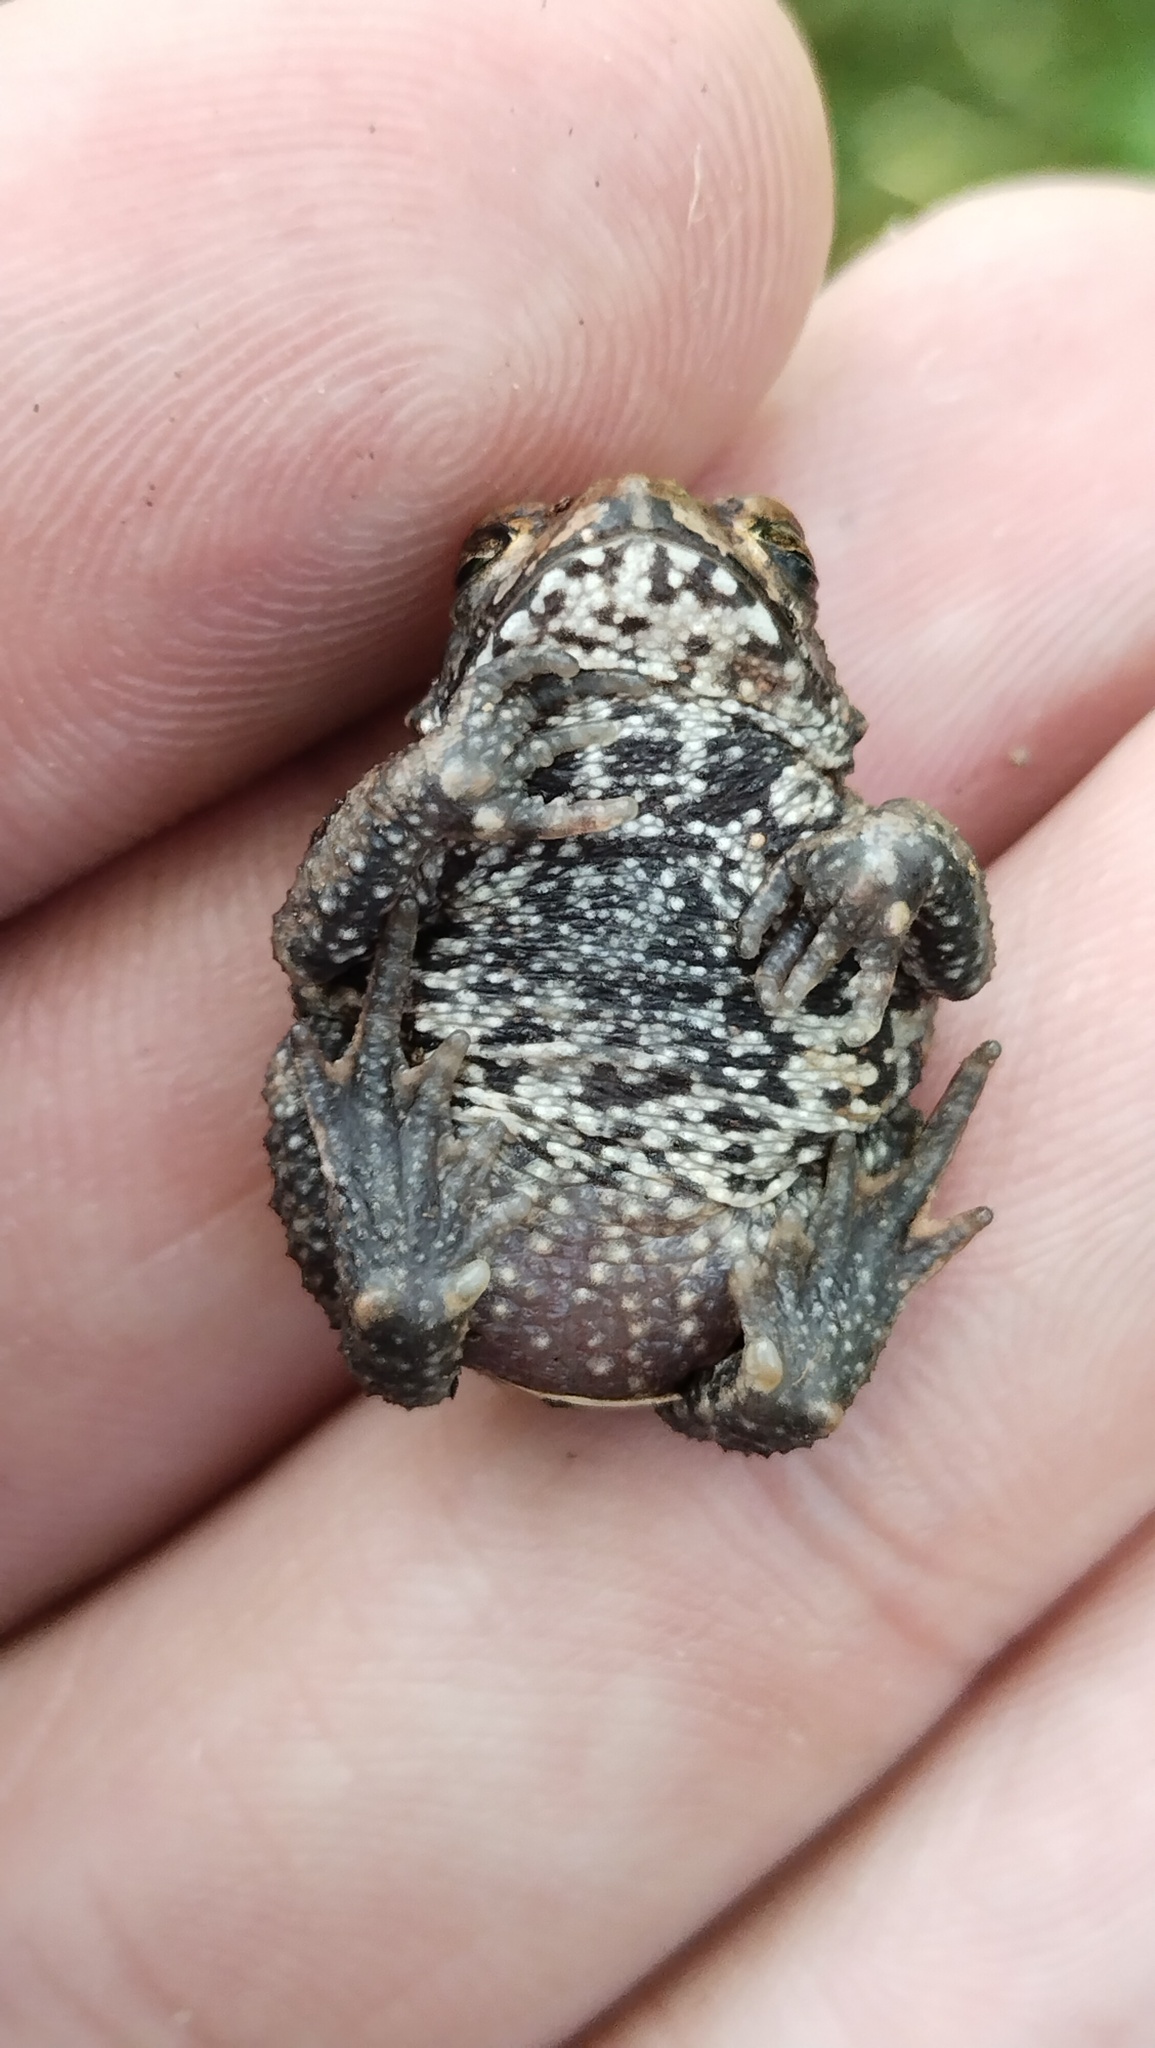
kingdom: Animalia
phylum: Chordata
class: Amphibia
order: Anura
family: Bufonidae
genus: Bufo
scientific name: Bufo gargarizans
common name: Asiatic toad
